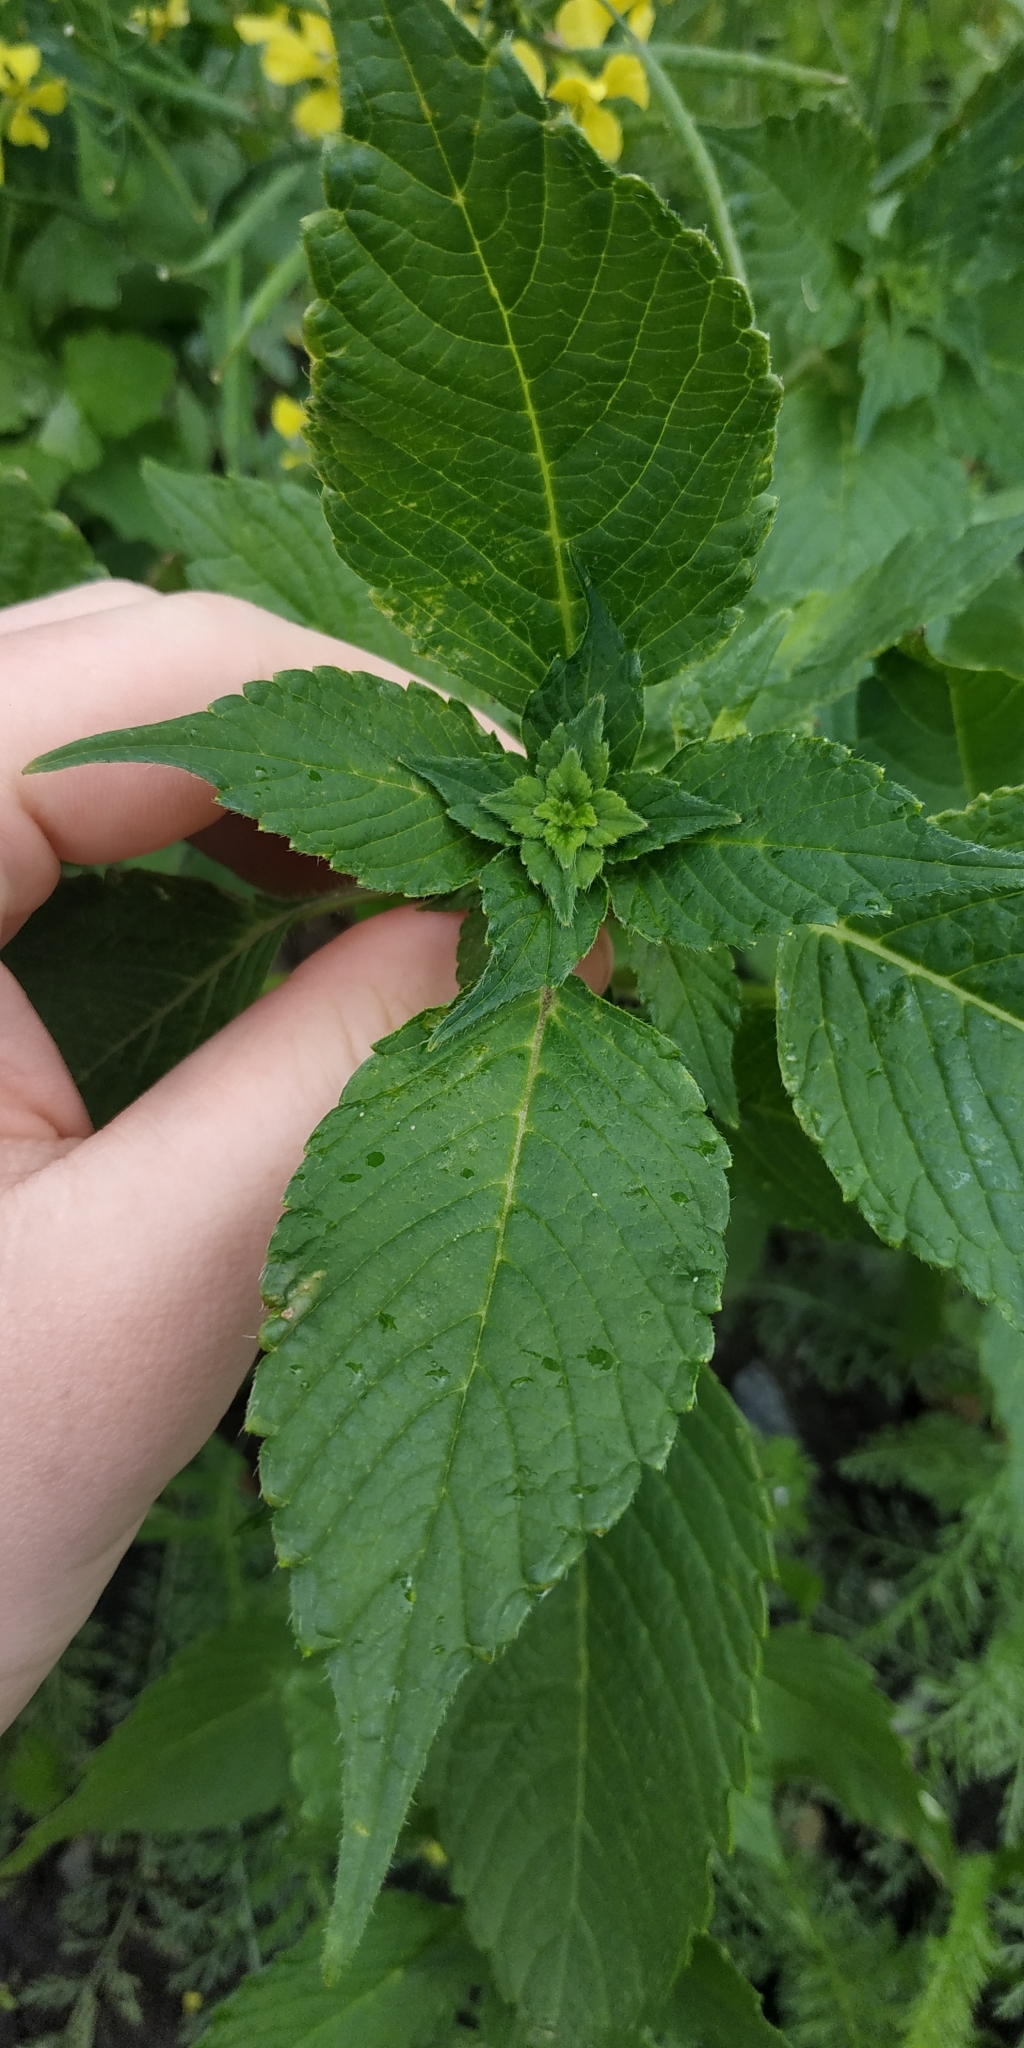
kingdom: Plantae
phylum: Tracheophyta
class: Magnoliopsida
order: Lamiales
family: Lamiaceae
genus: Galeopsis
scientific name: Galeopsis
